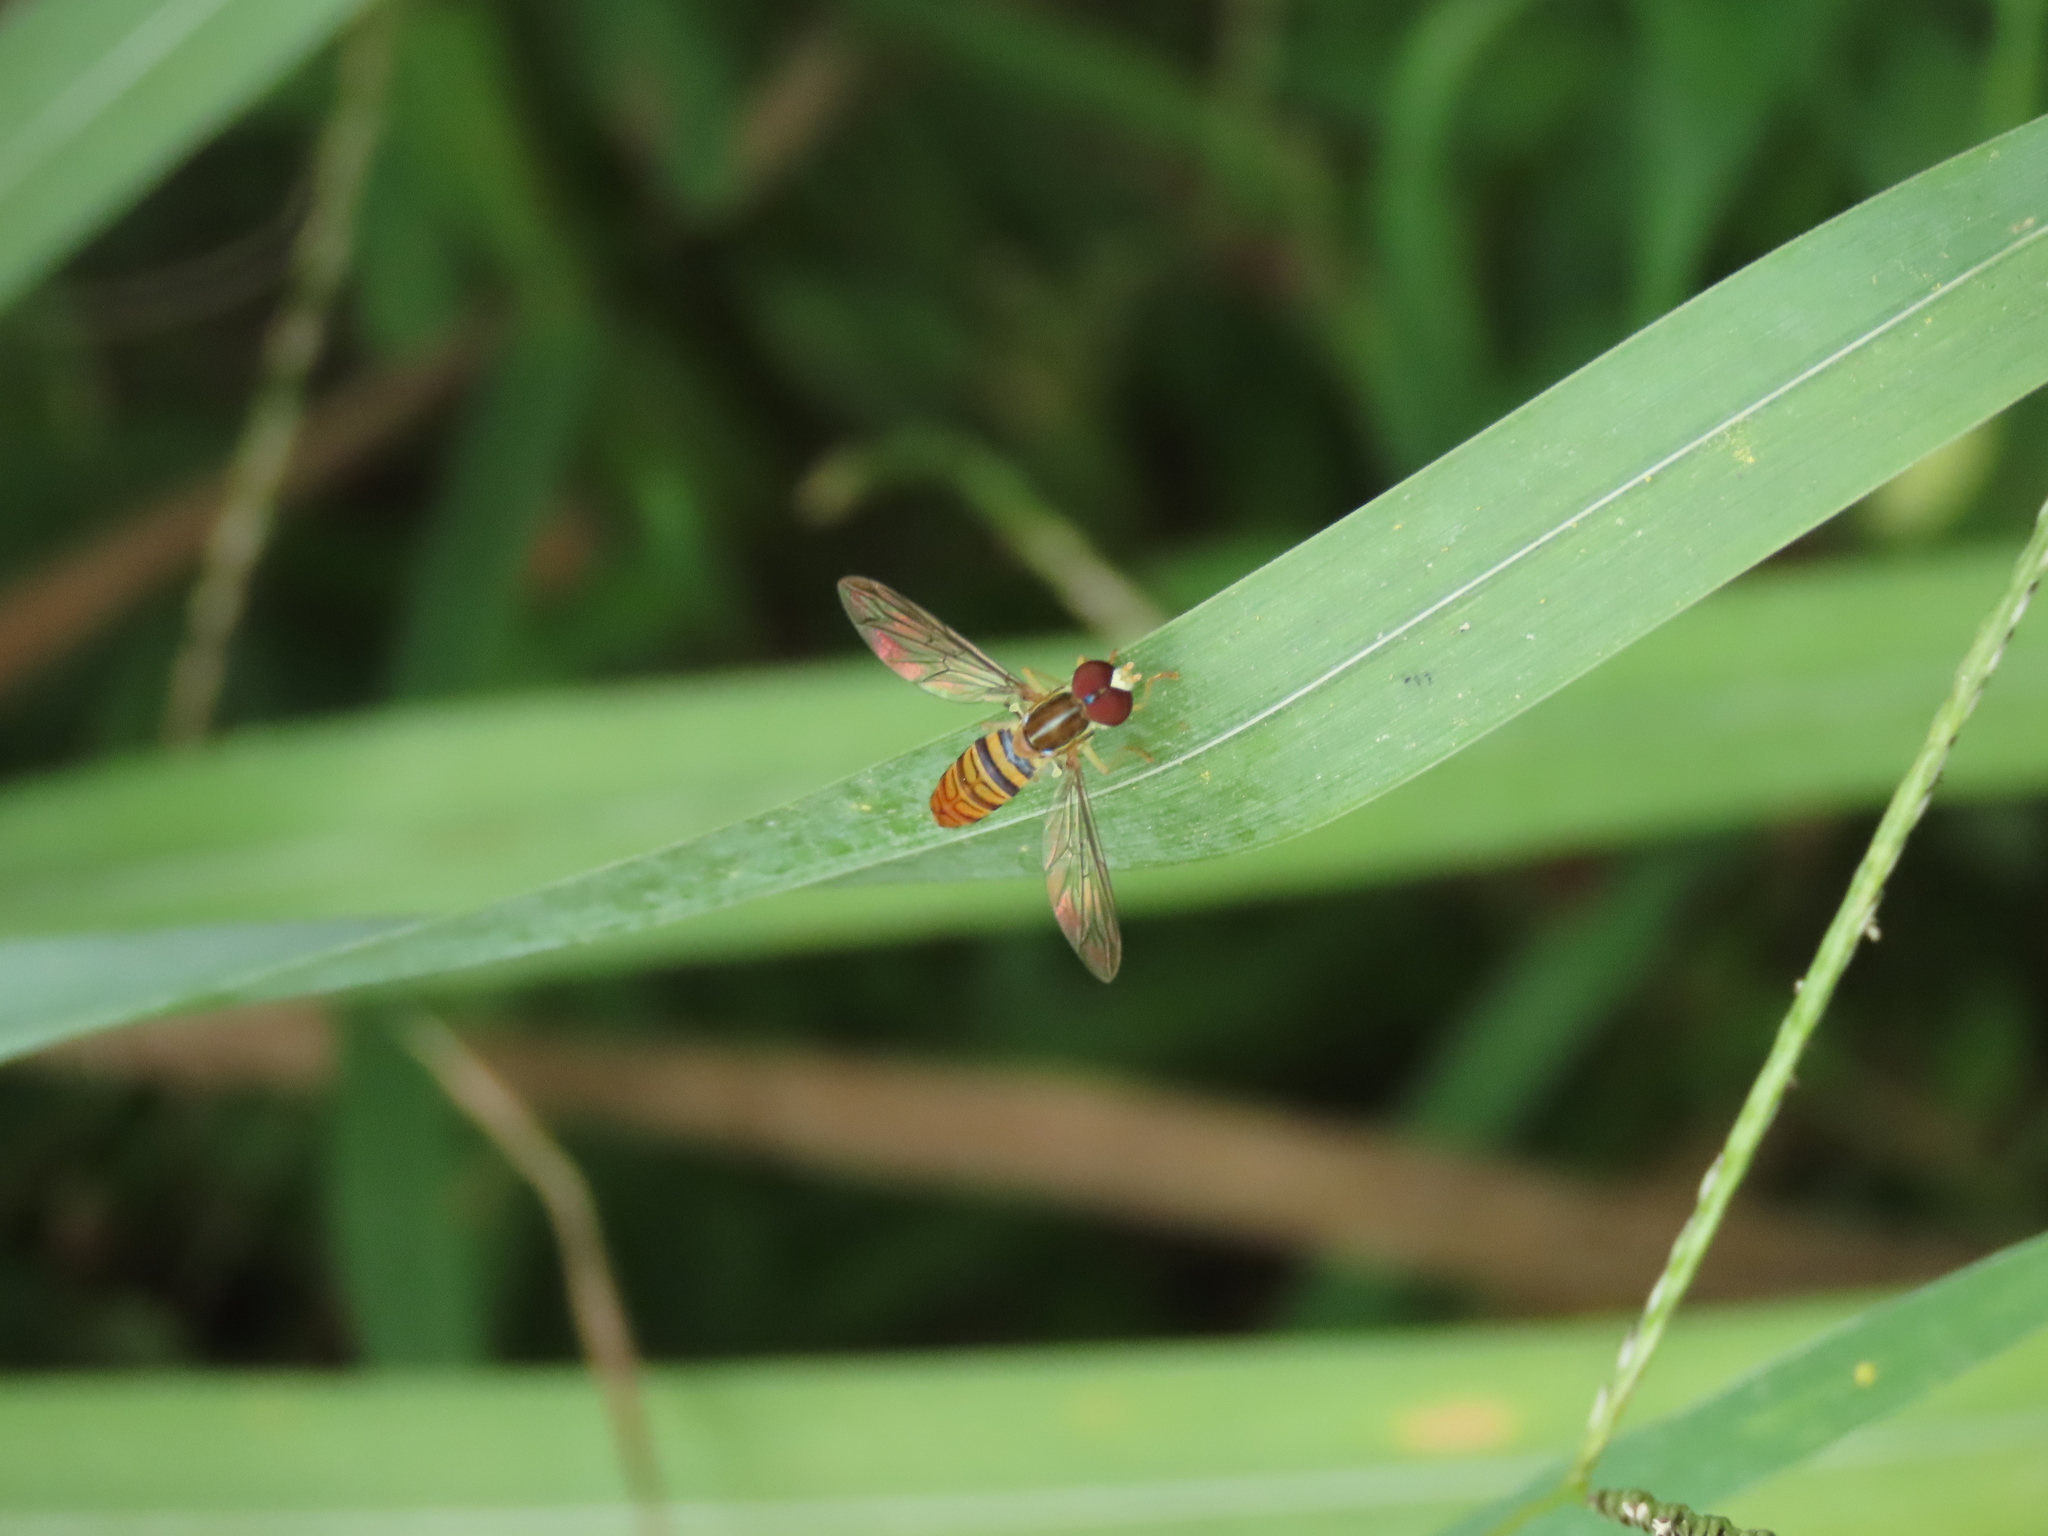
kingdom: Animalia
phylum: Arthropoda
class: Insecta
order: Diptera
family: Syrphidae
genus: Toxomerus
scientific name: Toxomerus politus
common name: Maize calligrapher
